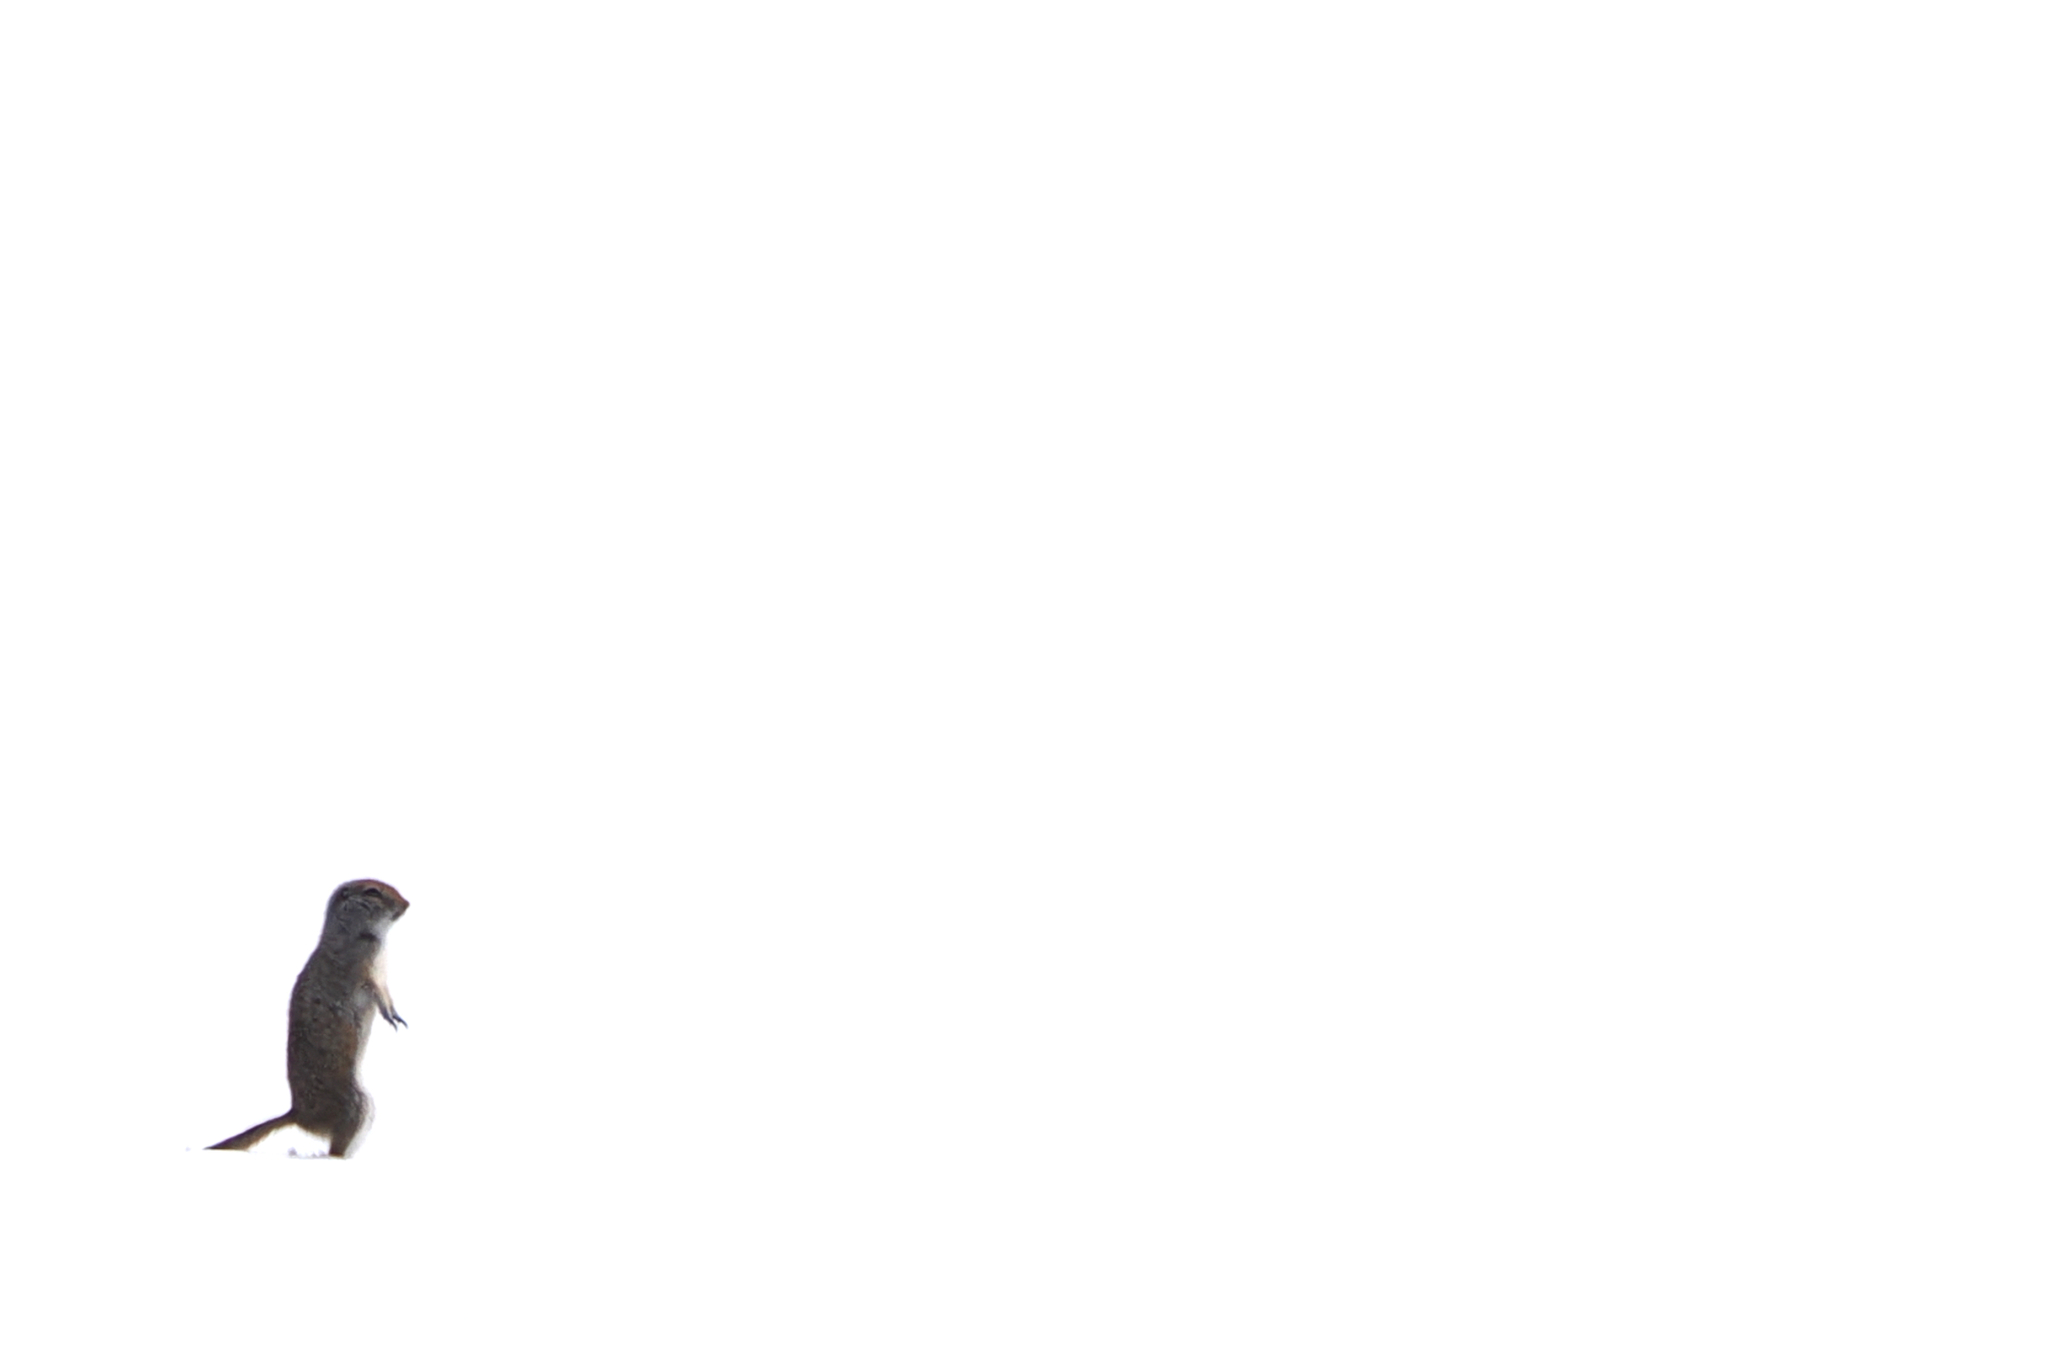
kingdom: Animalia
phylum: Chordata
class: Mammalia
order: Rodentia
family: Sciuridae
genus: Urocitellus
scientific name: Urocitellus parryii
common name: Arctic ground squirrel
